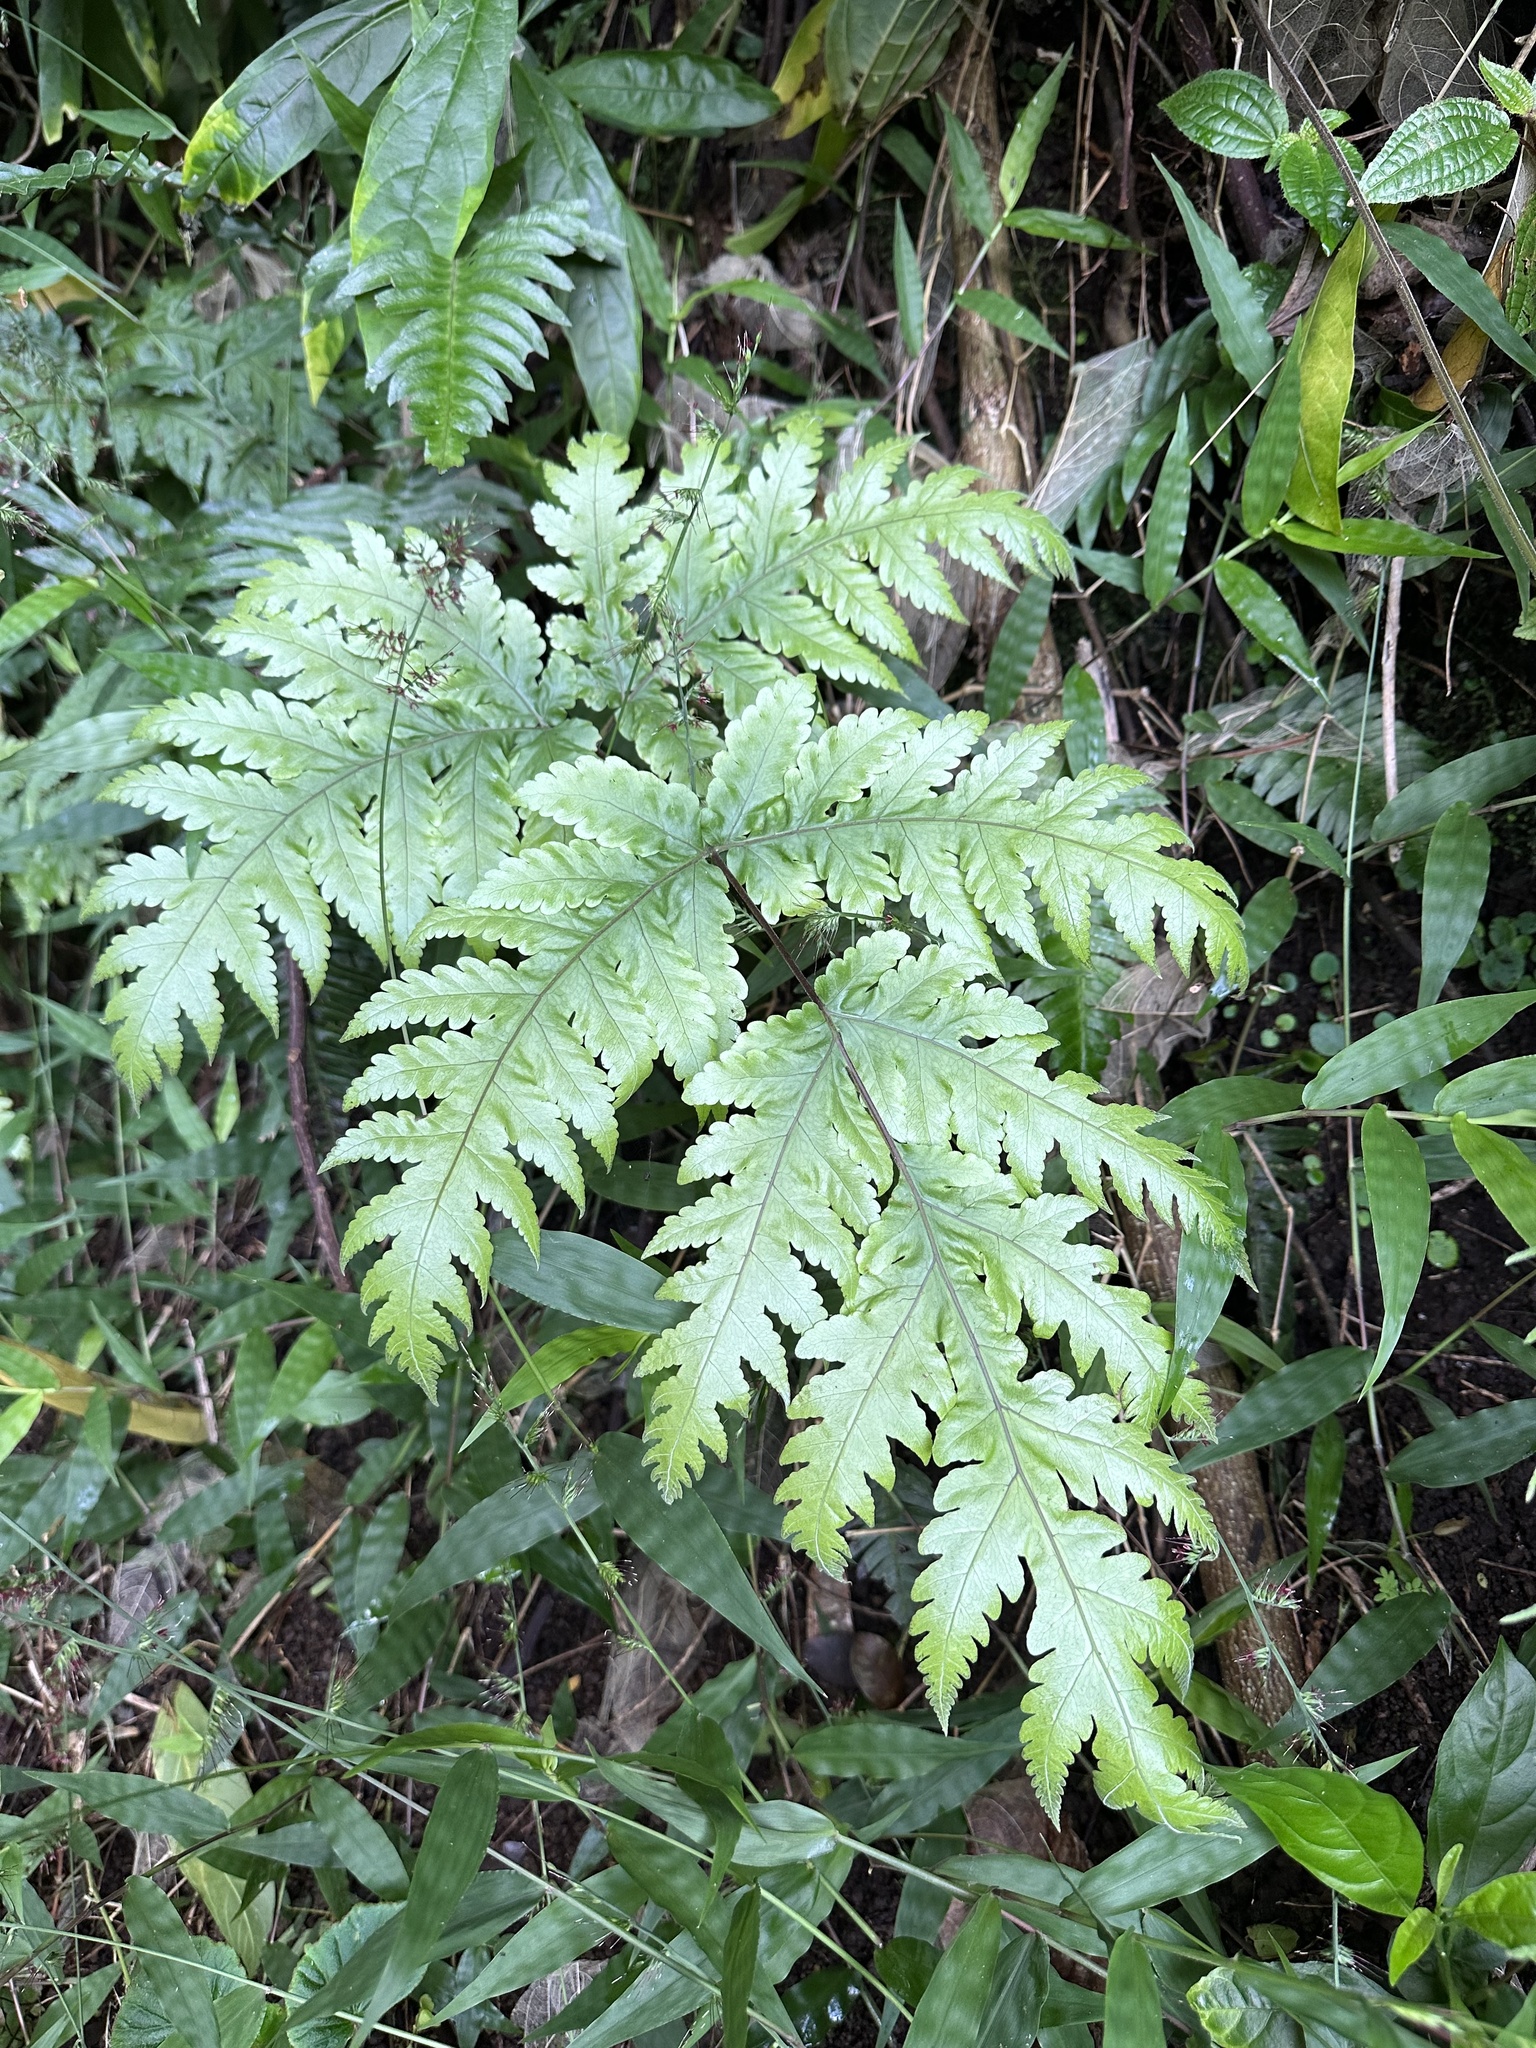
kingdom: Plantae
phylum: Tracheophyta
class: Polypodiopsida
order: Polypodiales
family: Tectariaceae
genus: Tectaria
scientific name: Tectaria gaudichaudii
